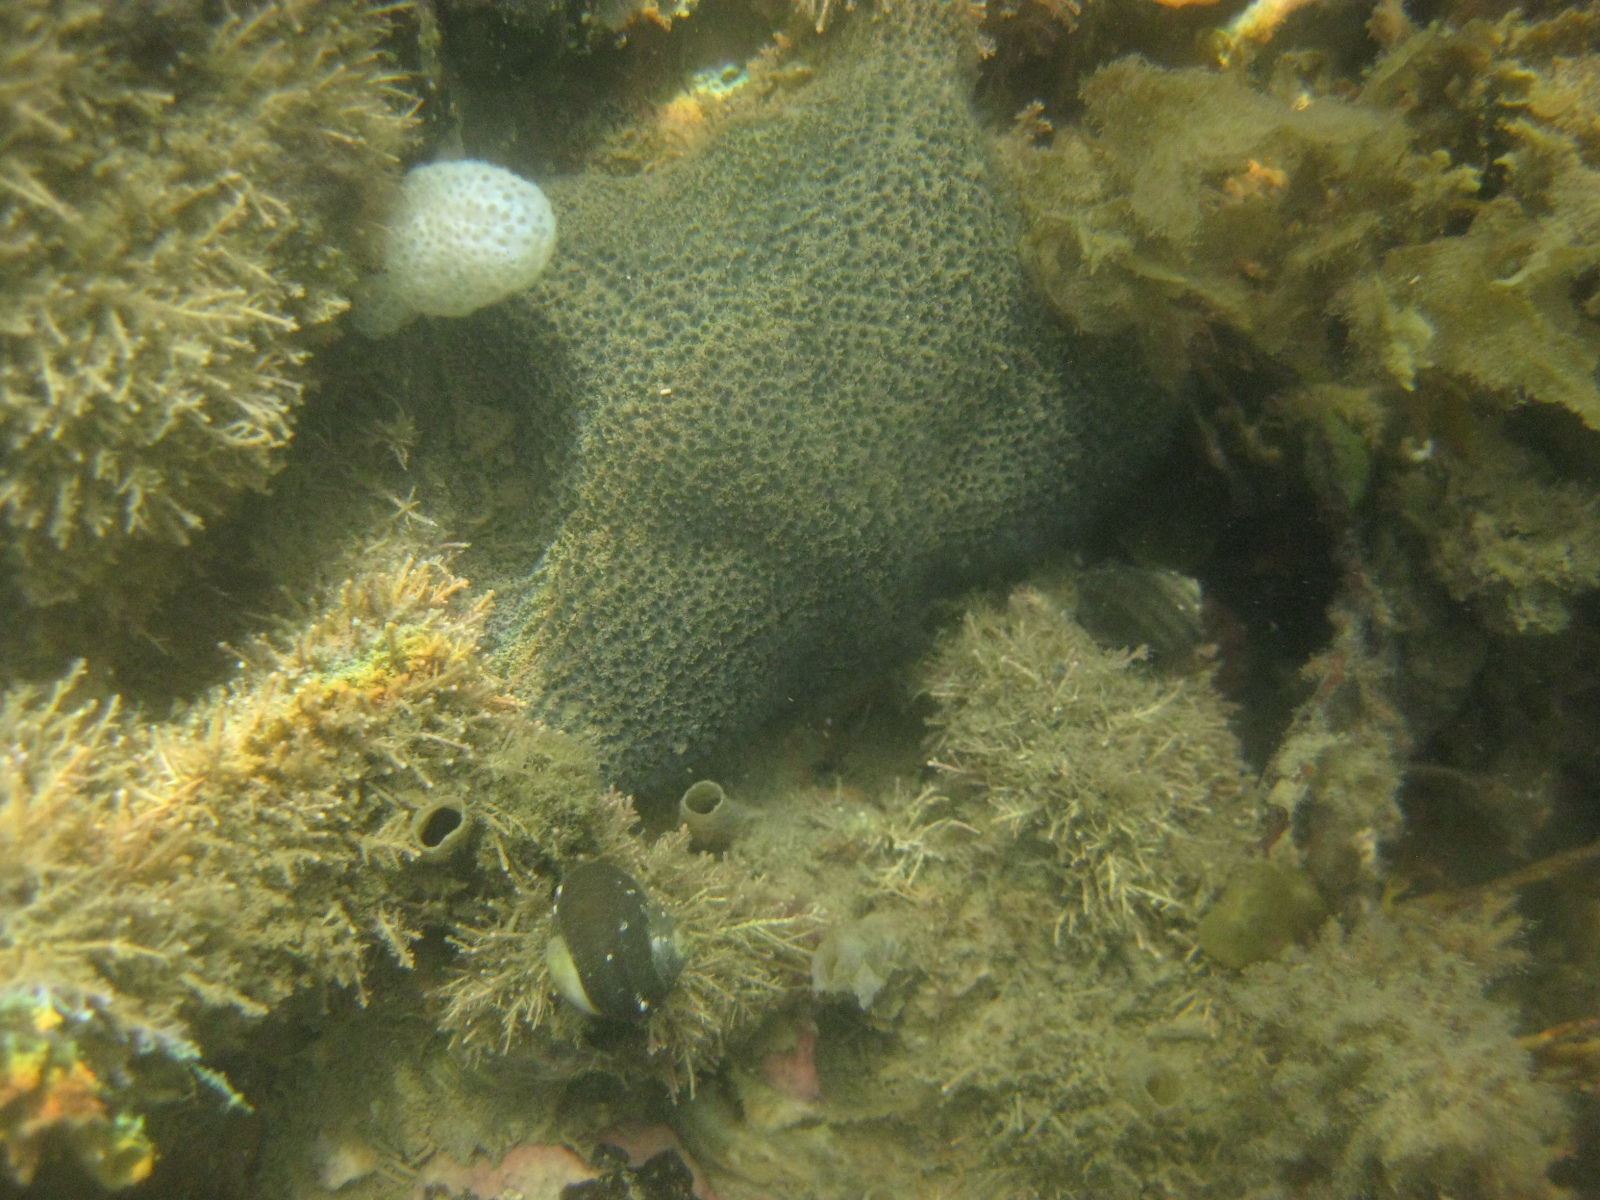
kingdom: Animalia
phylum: Echinodermata
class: Asteroidea
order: Valvatida
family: Asterinidae
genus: Patiriella
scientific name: Patiriella regularis
